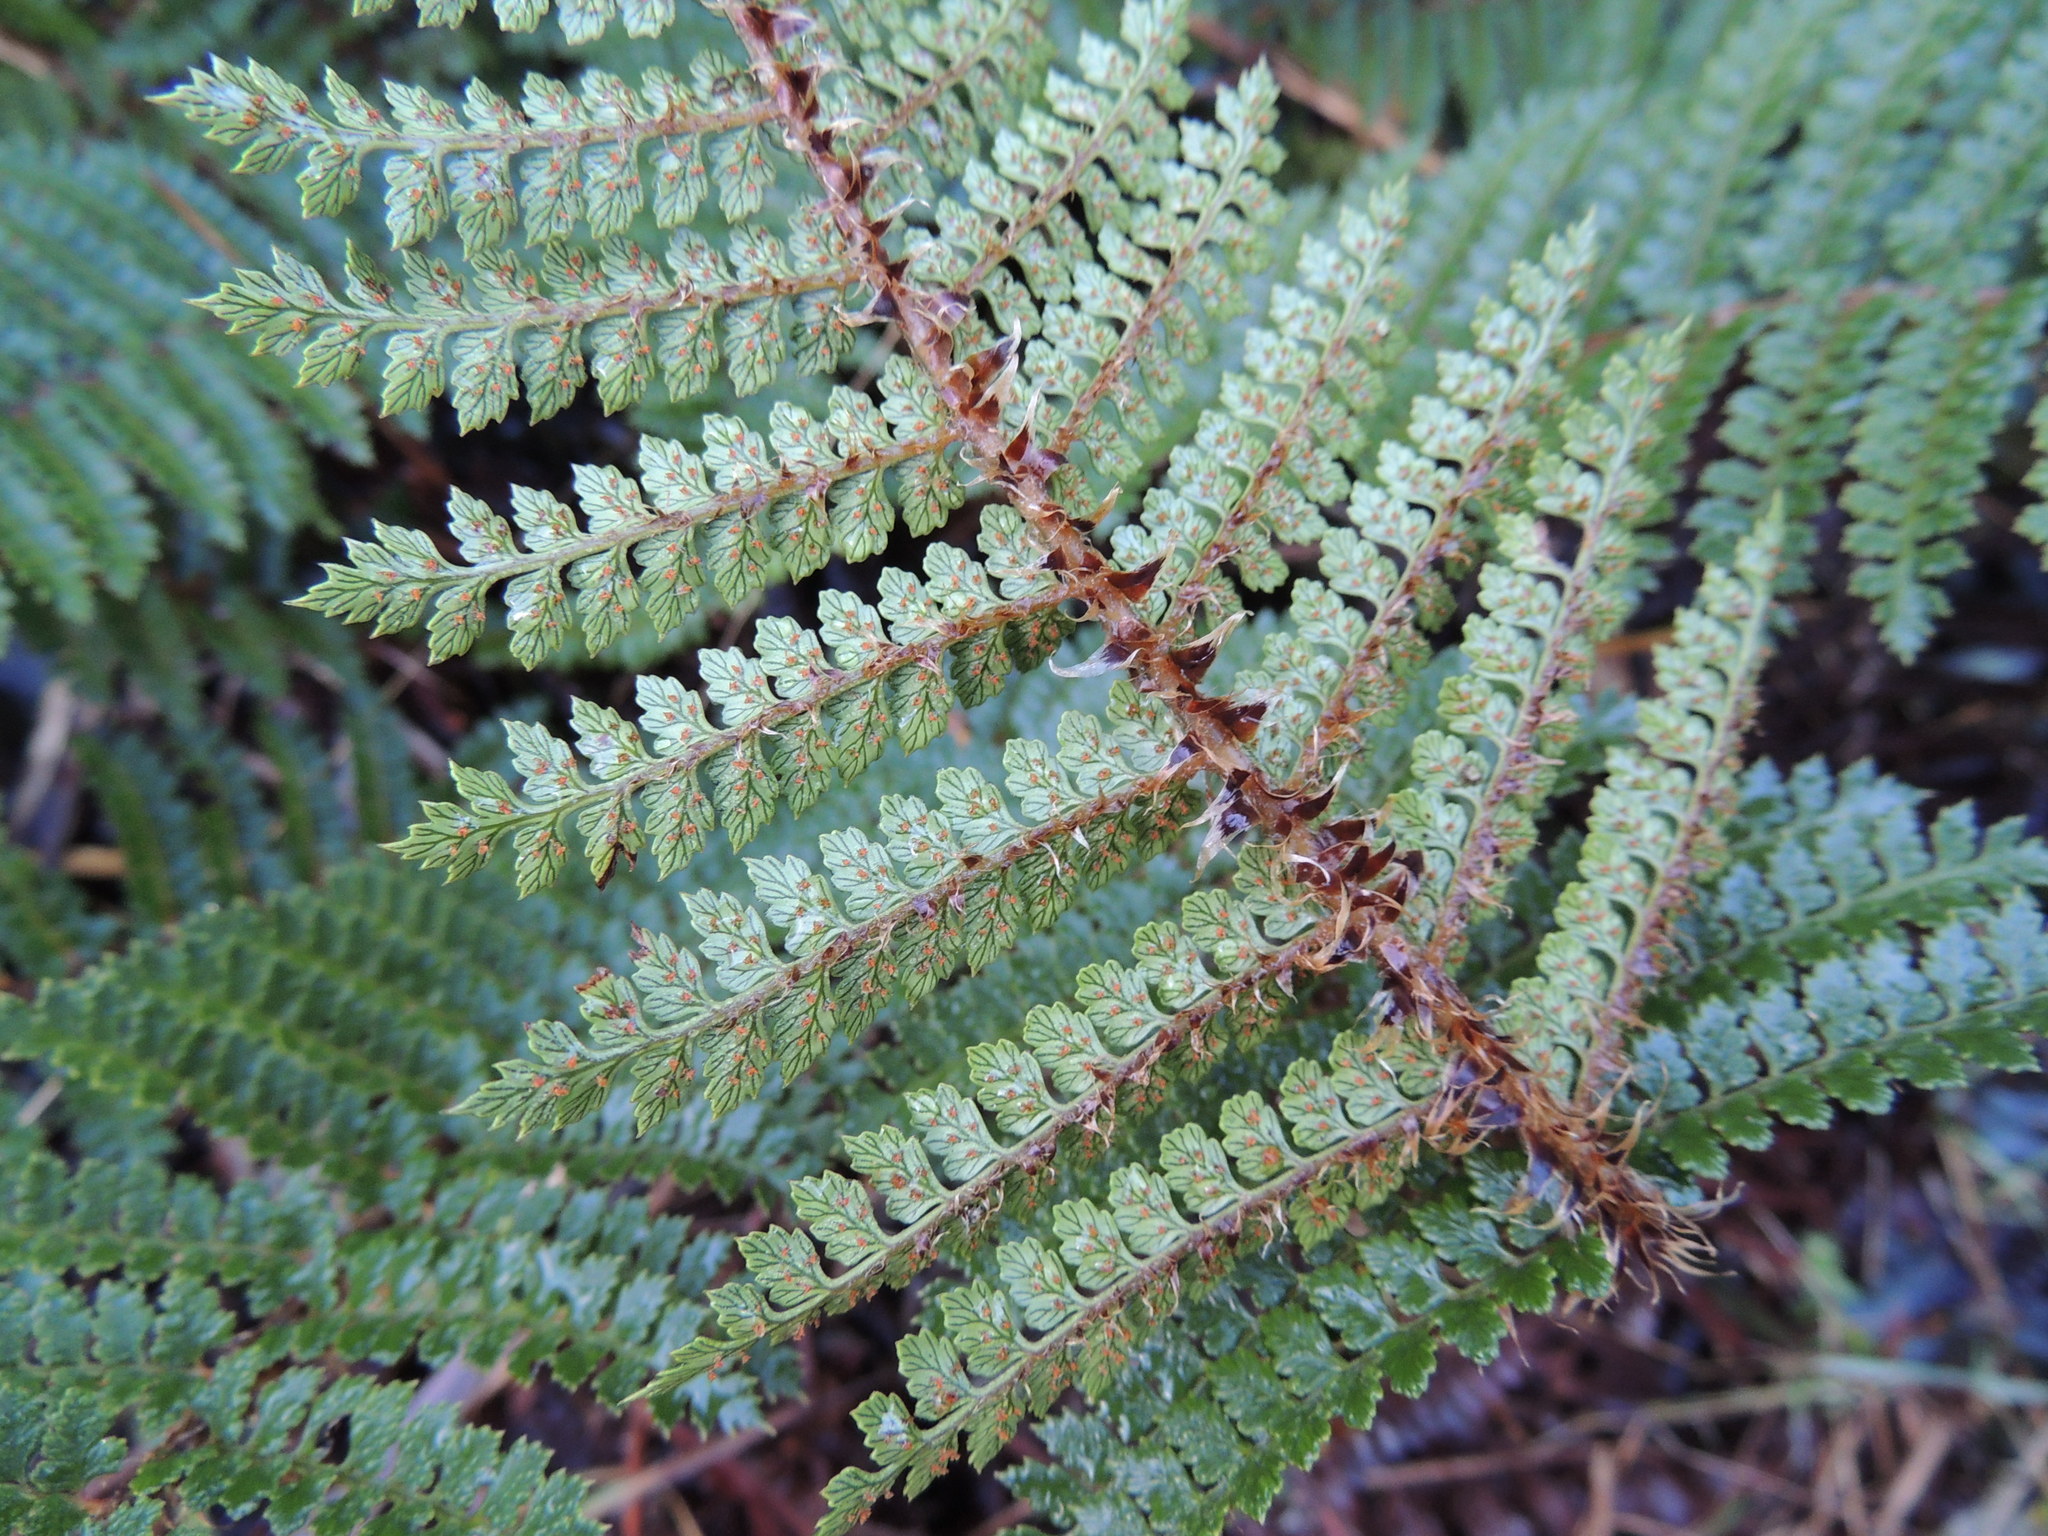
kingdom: Plantae
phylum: Tracheophyta
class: Polypodiopsida
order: Polypodiales
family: Dryopteridaceae
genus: Polystichum
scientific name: Polystichum vestitum
